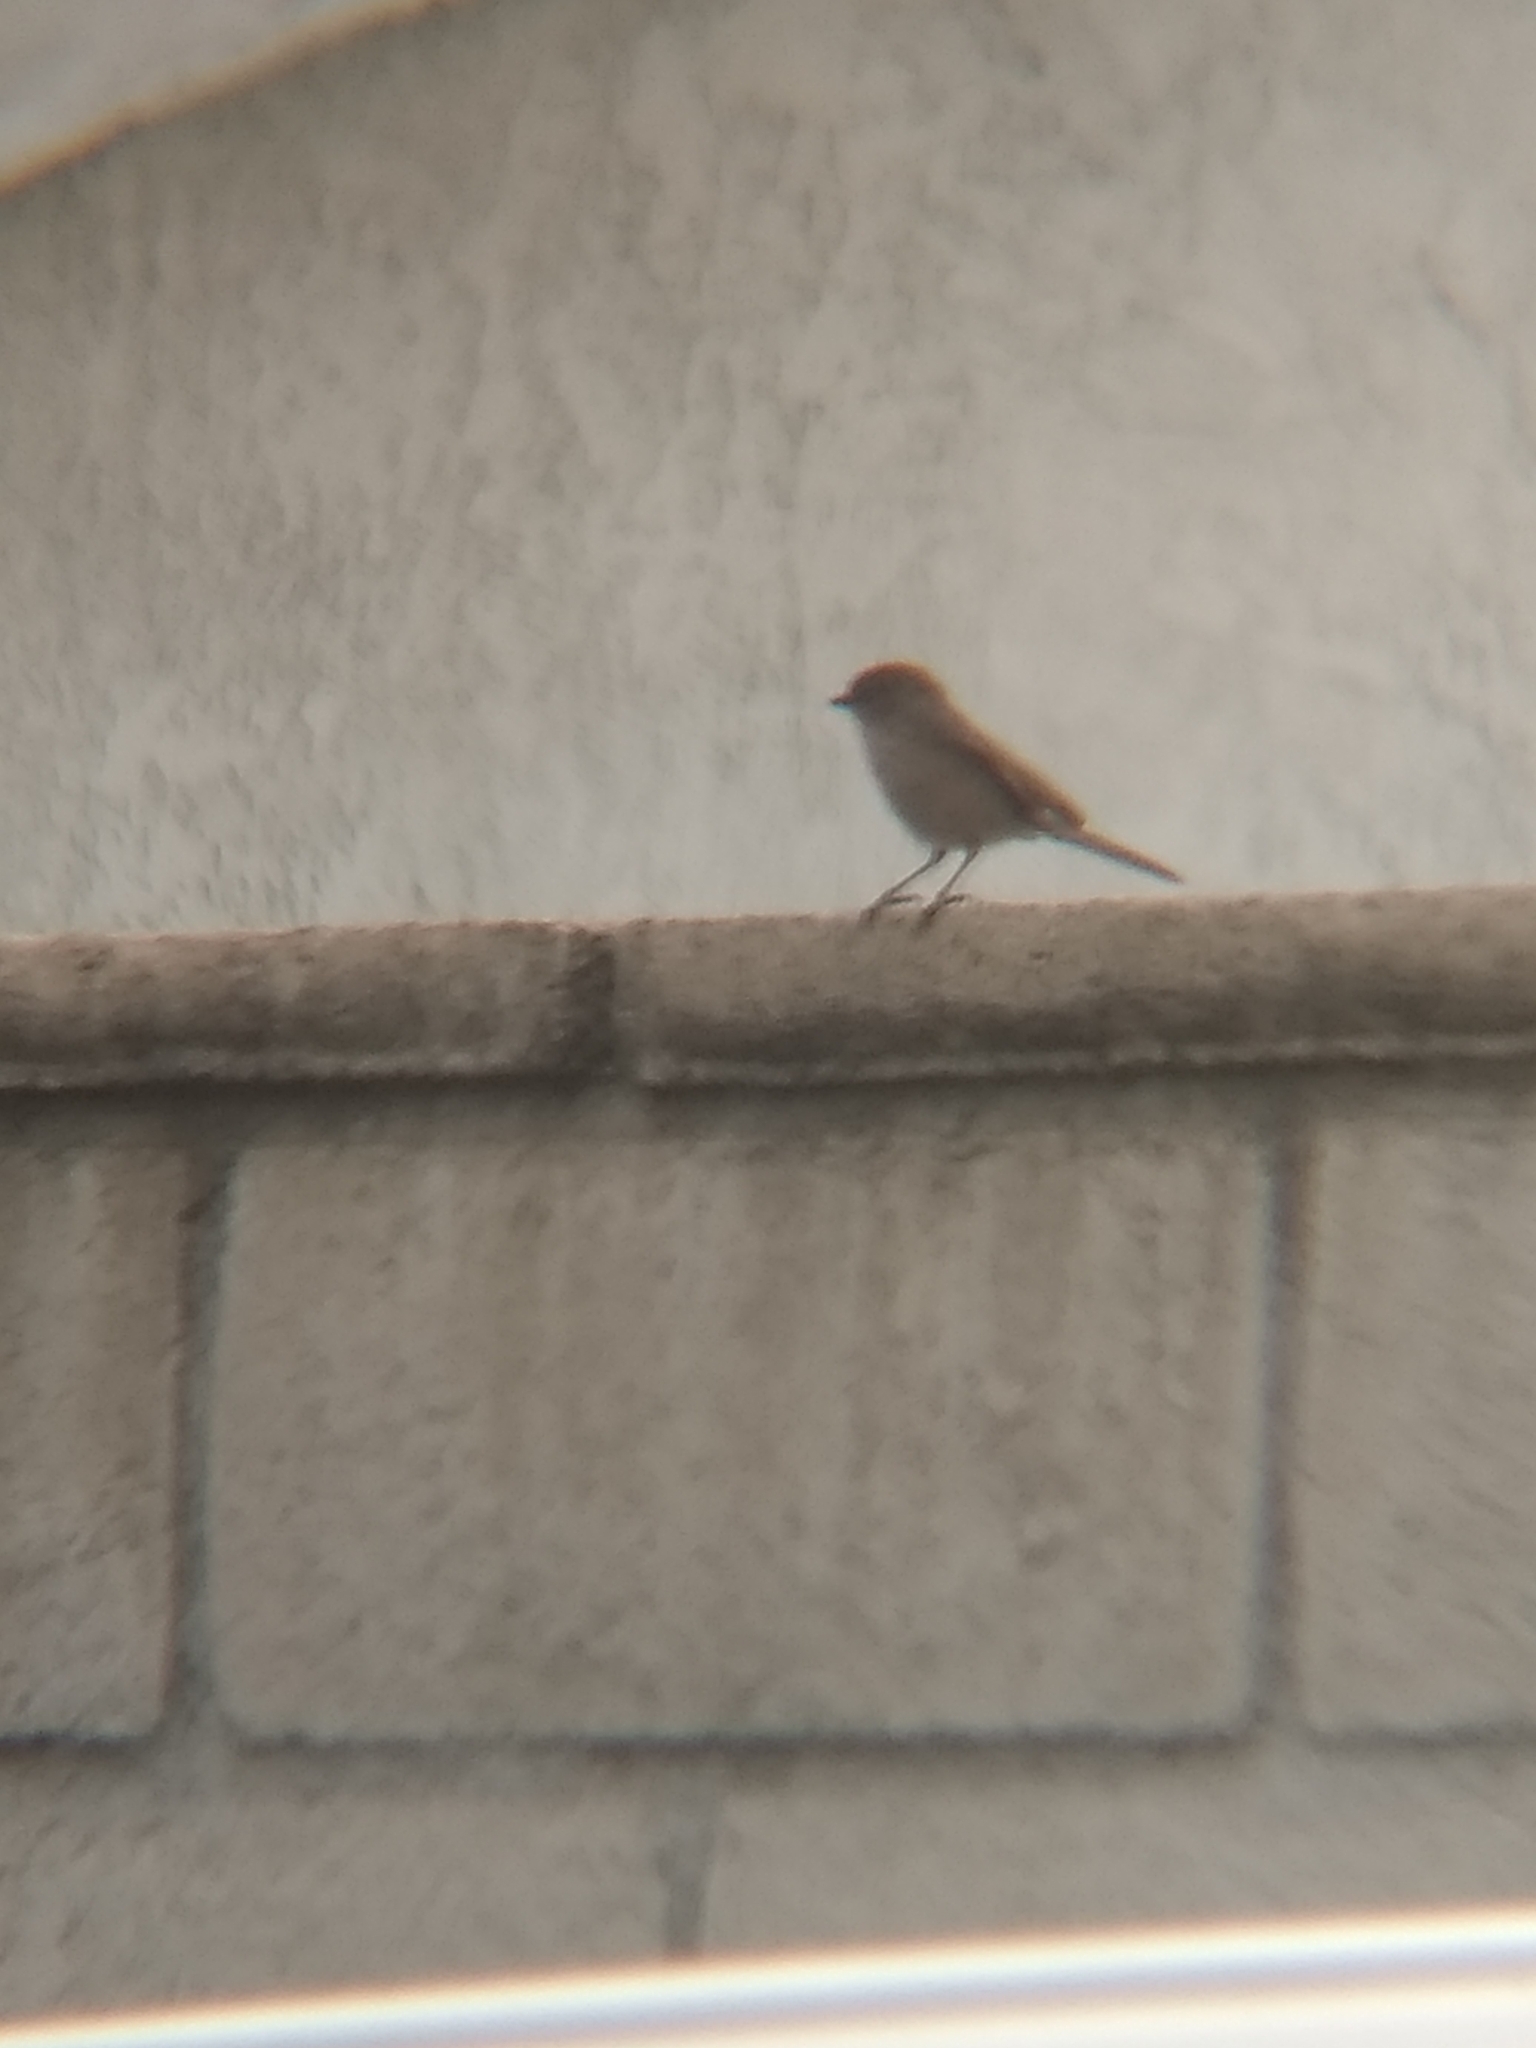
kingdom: Animalia
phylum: Chordata
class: Aves
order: Passeriformes
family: Aegithalidae
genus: Psaltriparus
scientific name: Psaltriparus minimus
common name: American bushtit
